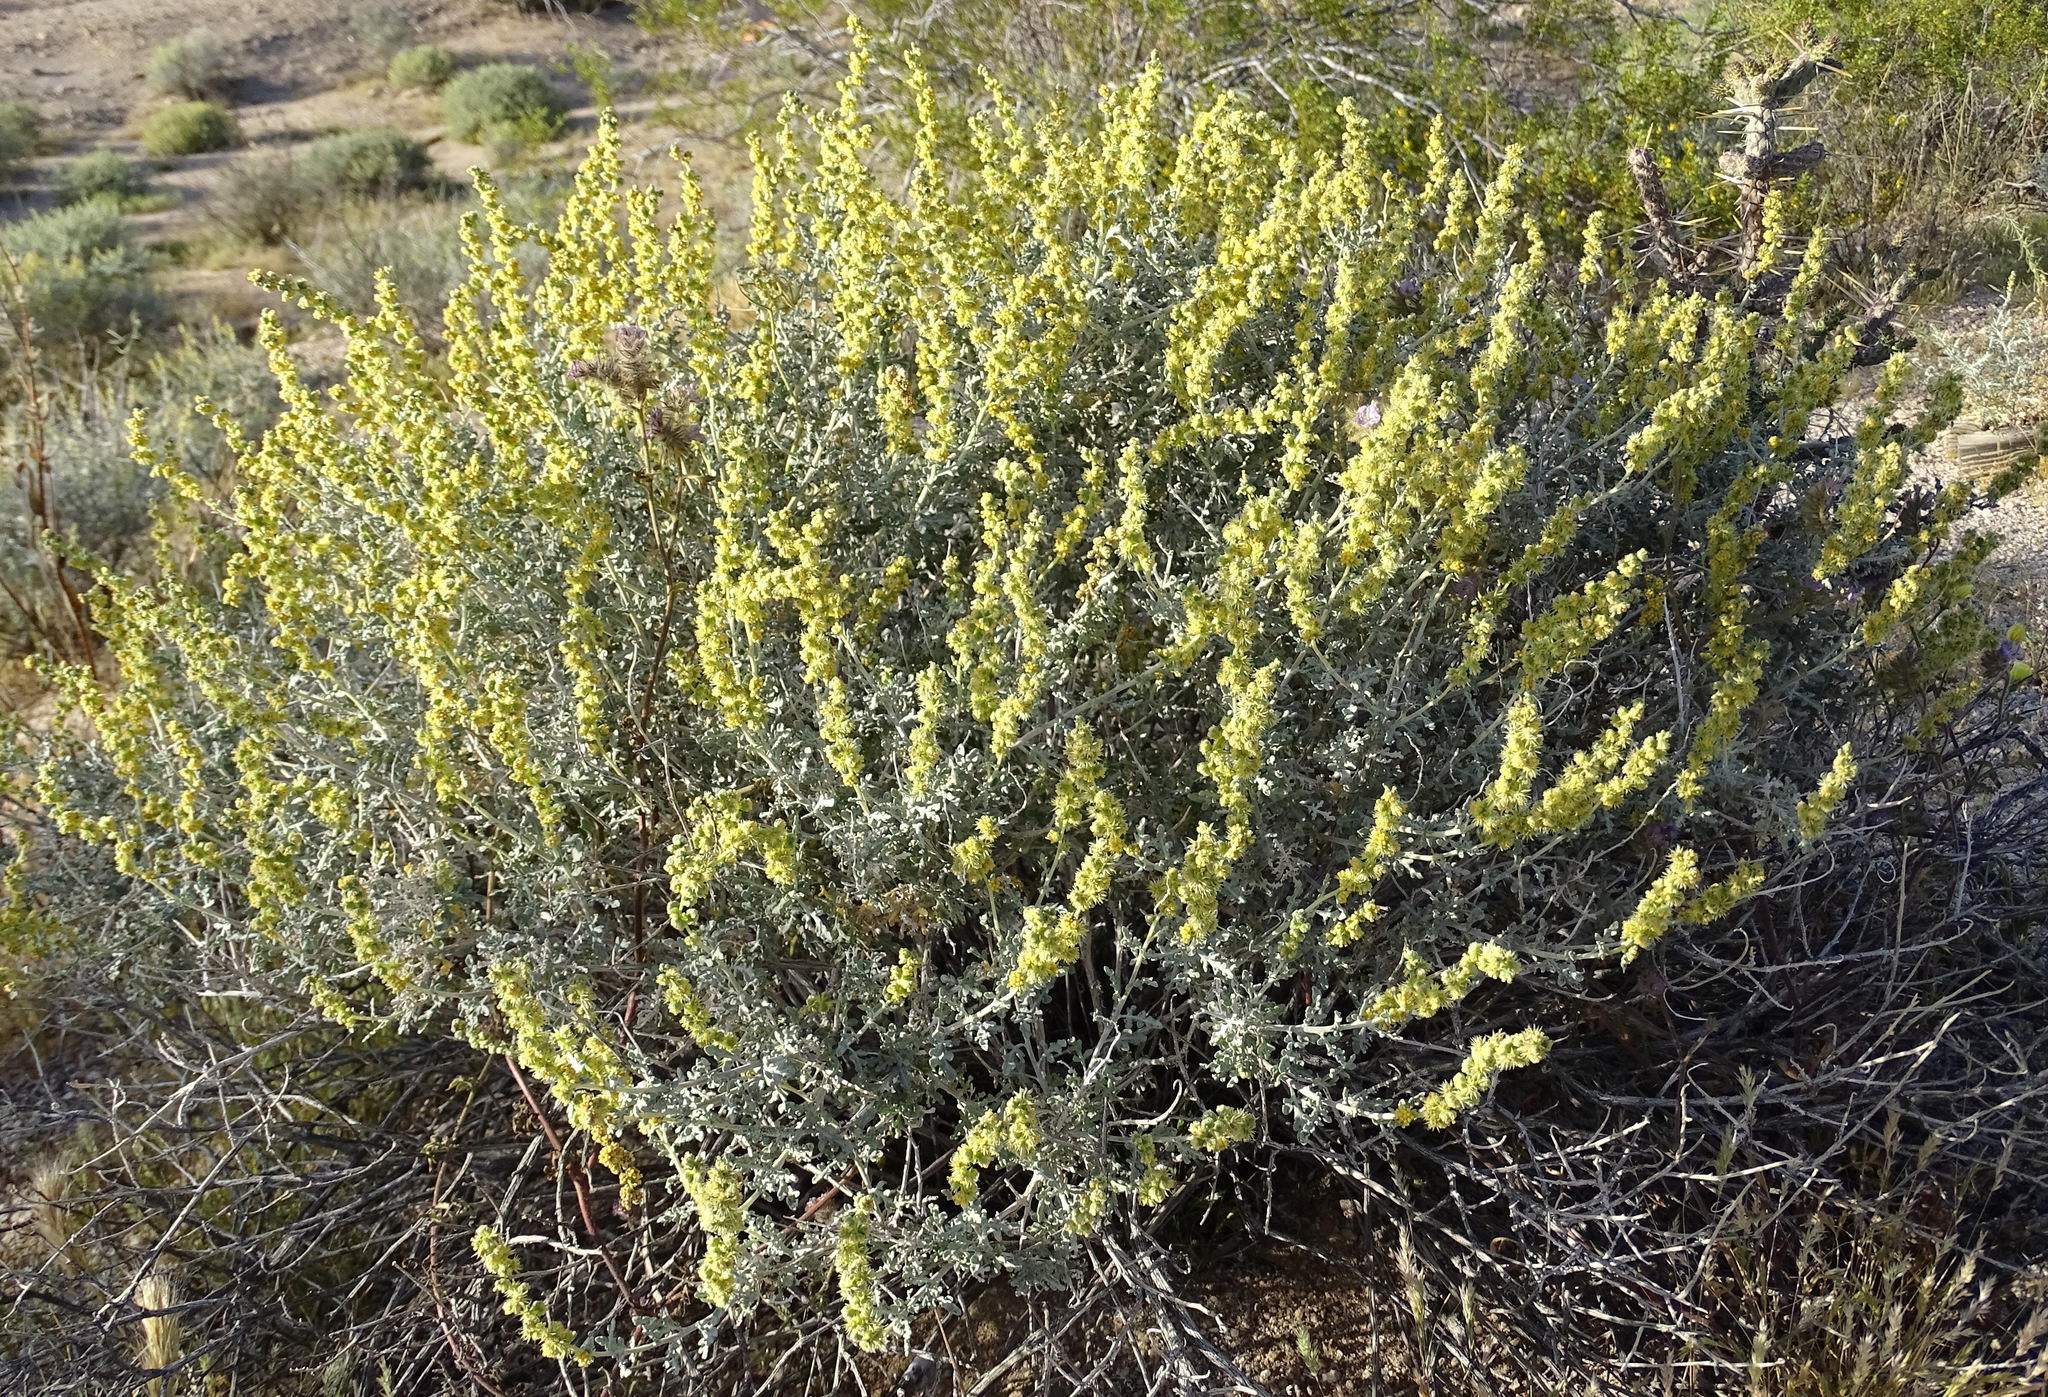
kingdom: Plantae
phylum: Tracheophyta
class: Magnoliopsida
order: Asterales
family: Asteraceae
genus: Ambrosia
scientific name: Ambrosia dumosa
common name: Bur-sage
